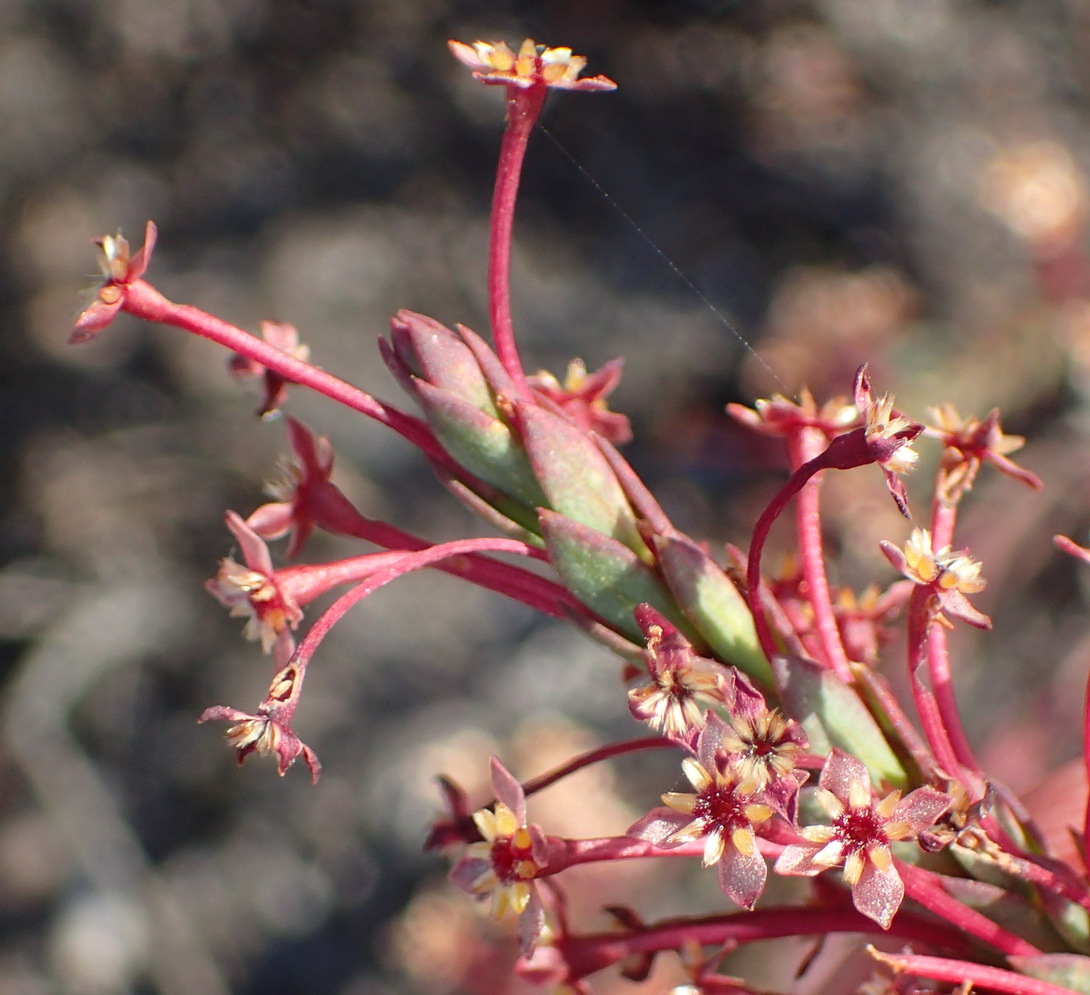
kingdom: Plantae
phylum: Tracheophyta
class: Magnoliopsida
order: Malvales
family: Thymelaeaceae
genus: Struthiola
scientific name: Struthiola macowanii
